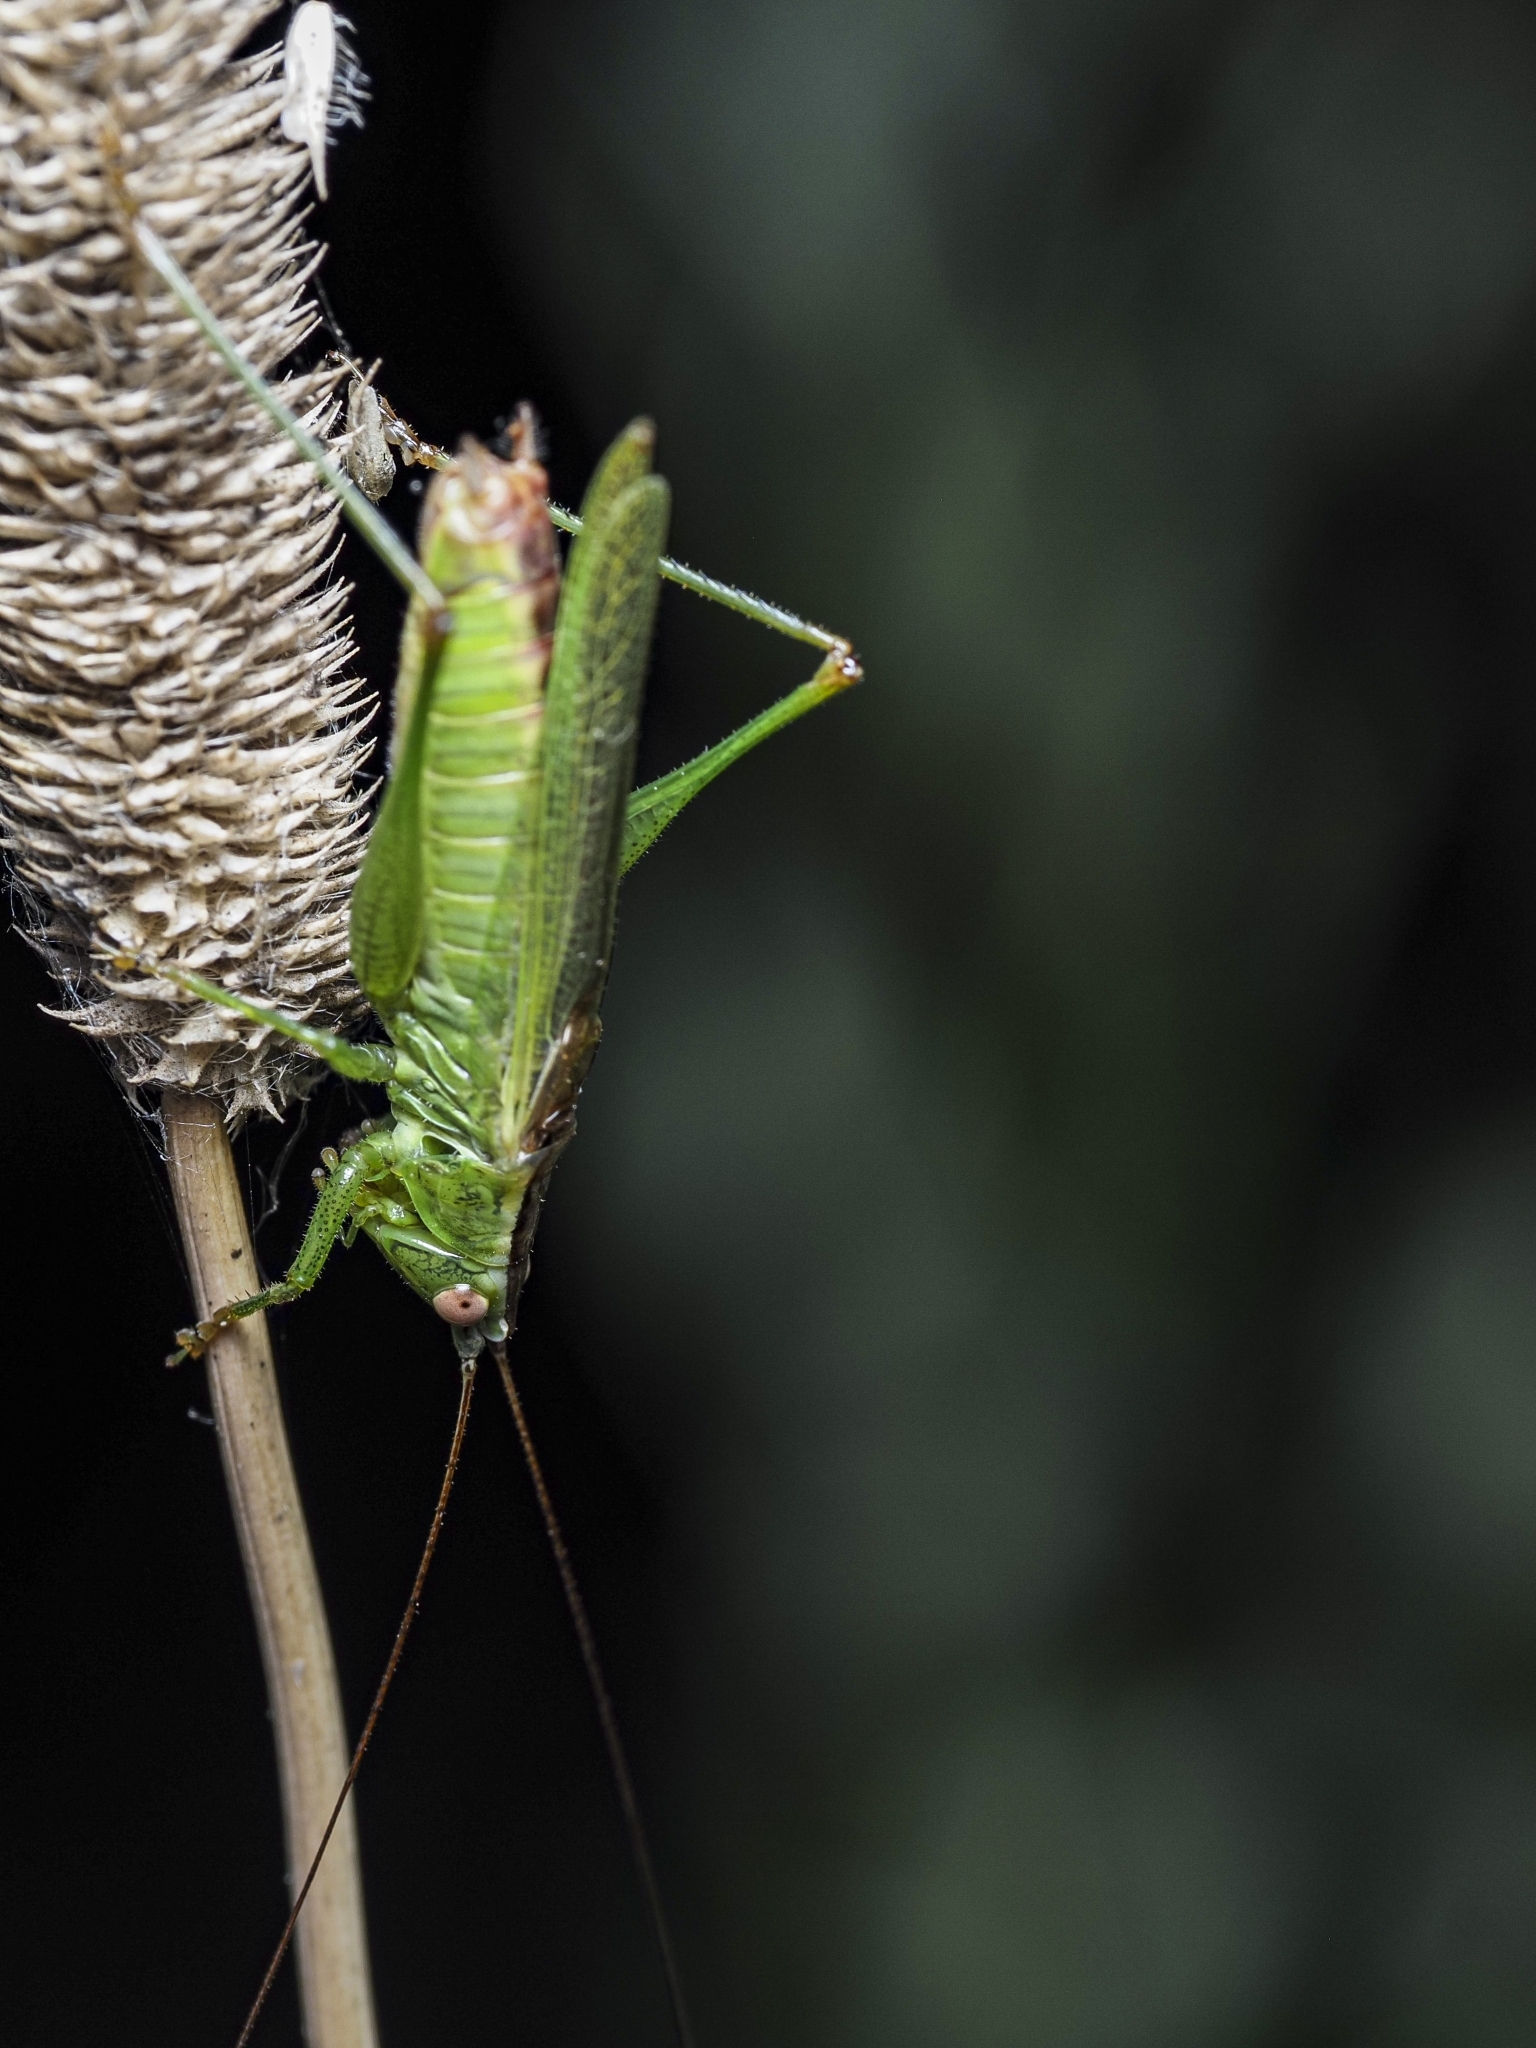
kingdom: Animalia
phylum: Arthropoda
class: Insecta
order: Orthoptera
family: Tettigoniidae
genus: Conocephalus
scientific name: Conocephalus fuscus
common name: Long-winged conehead
